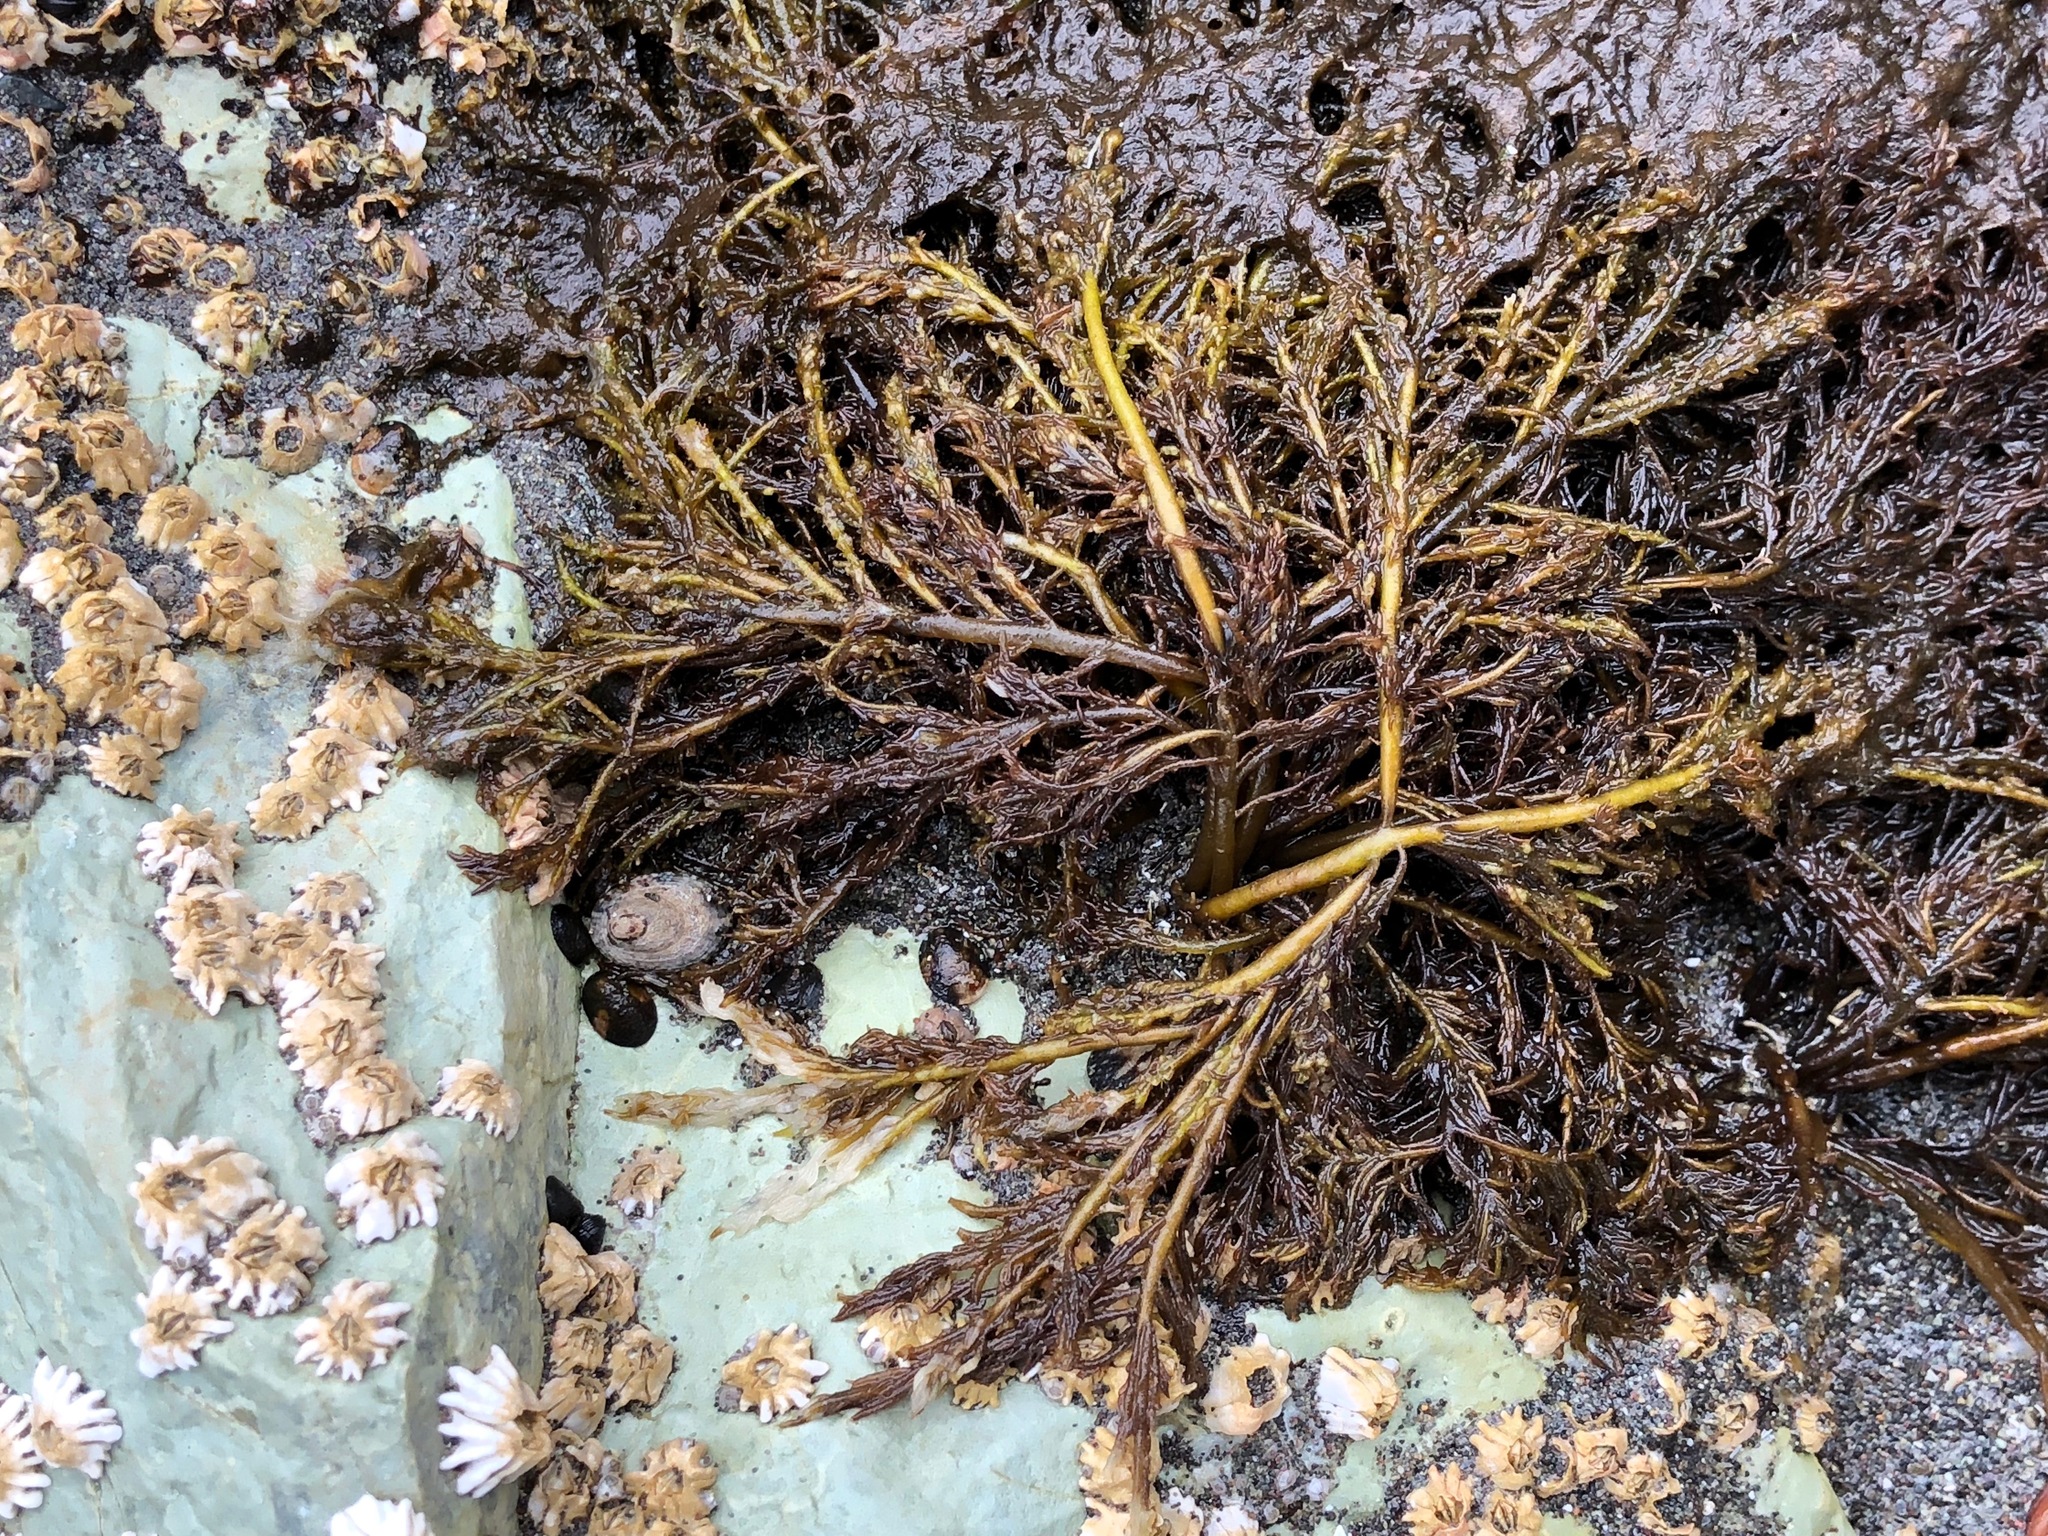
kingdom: Plantae
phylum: Rhodophyta
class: Florideophyceae
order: Gigartinales
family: Dumontiaceae
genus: Cryptosiphonia
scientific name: Cryptosiphonia woodii
